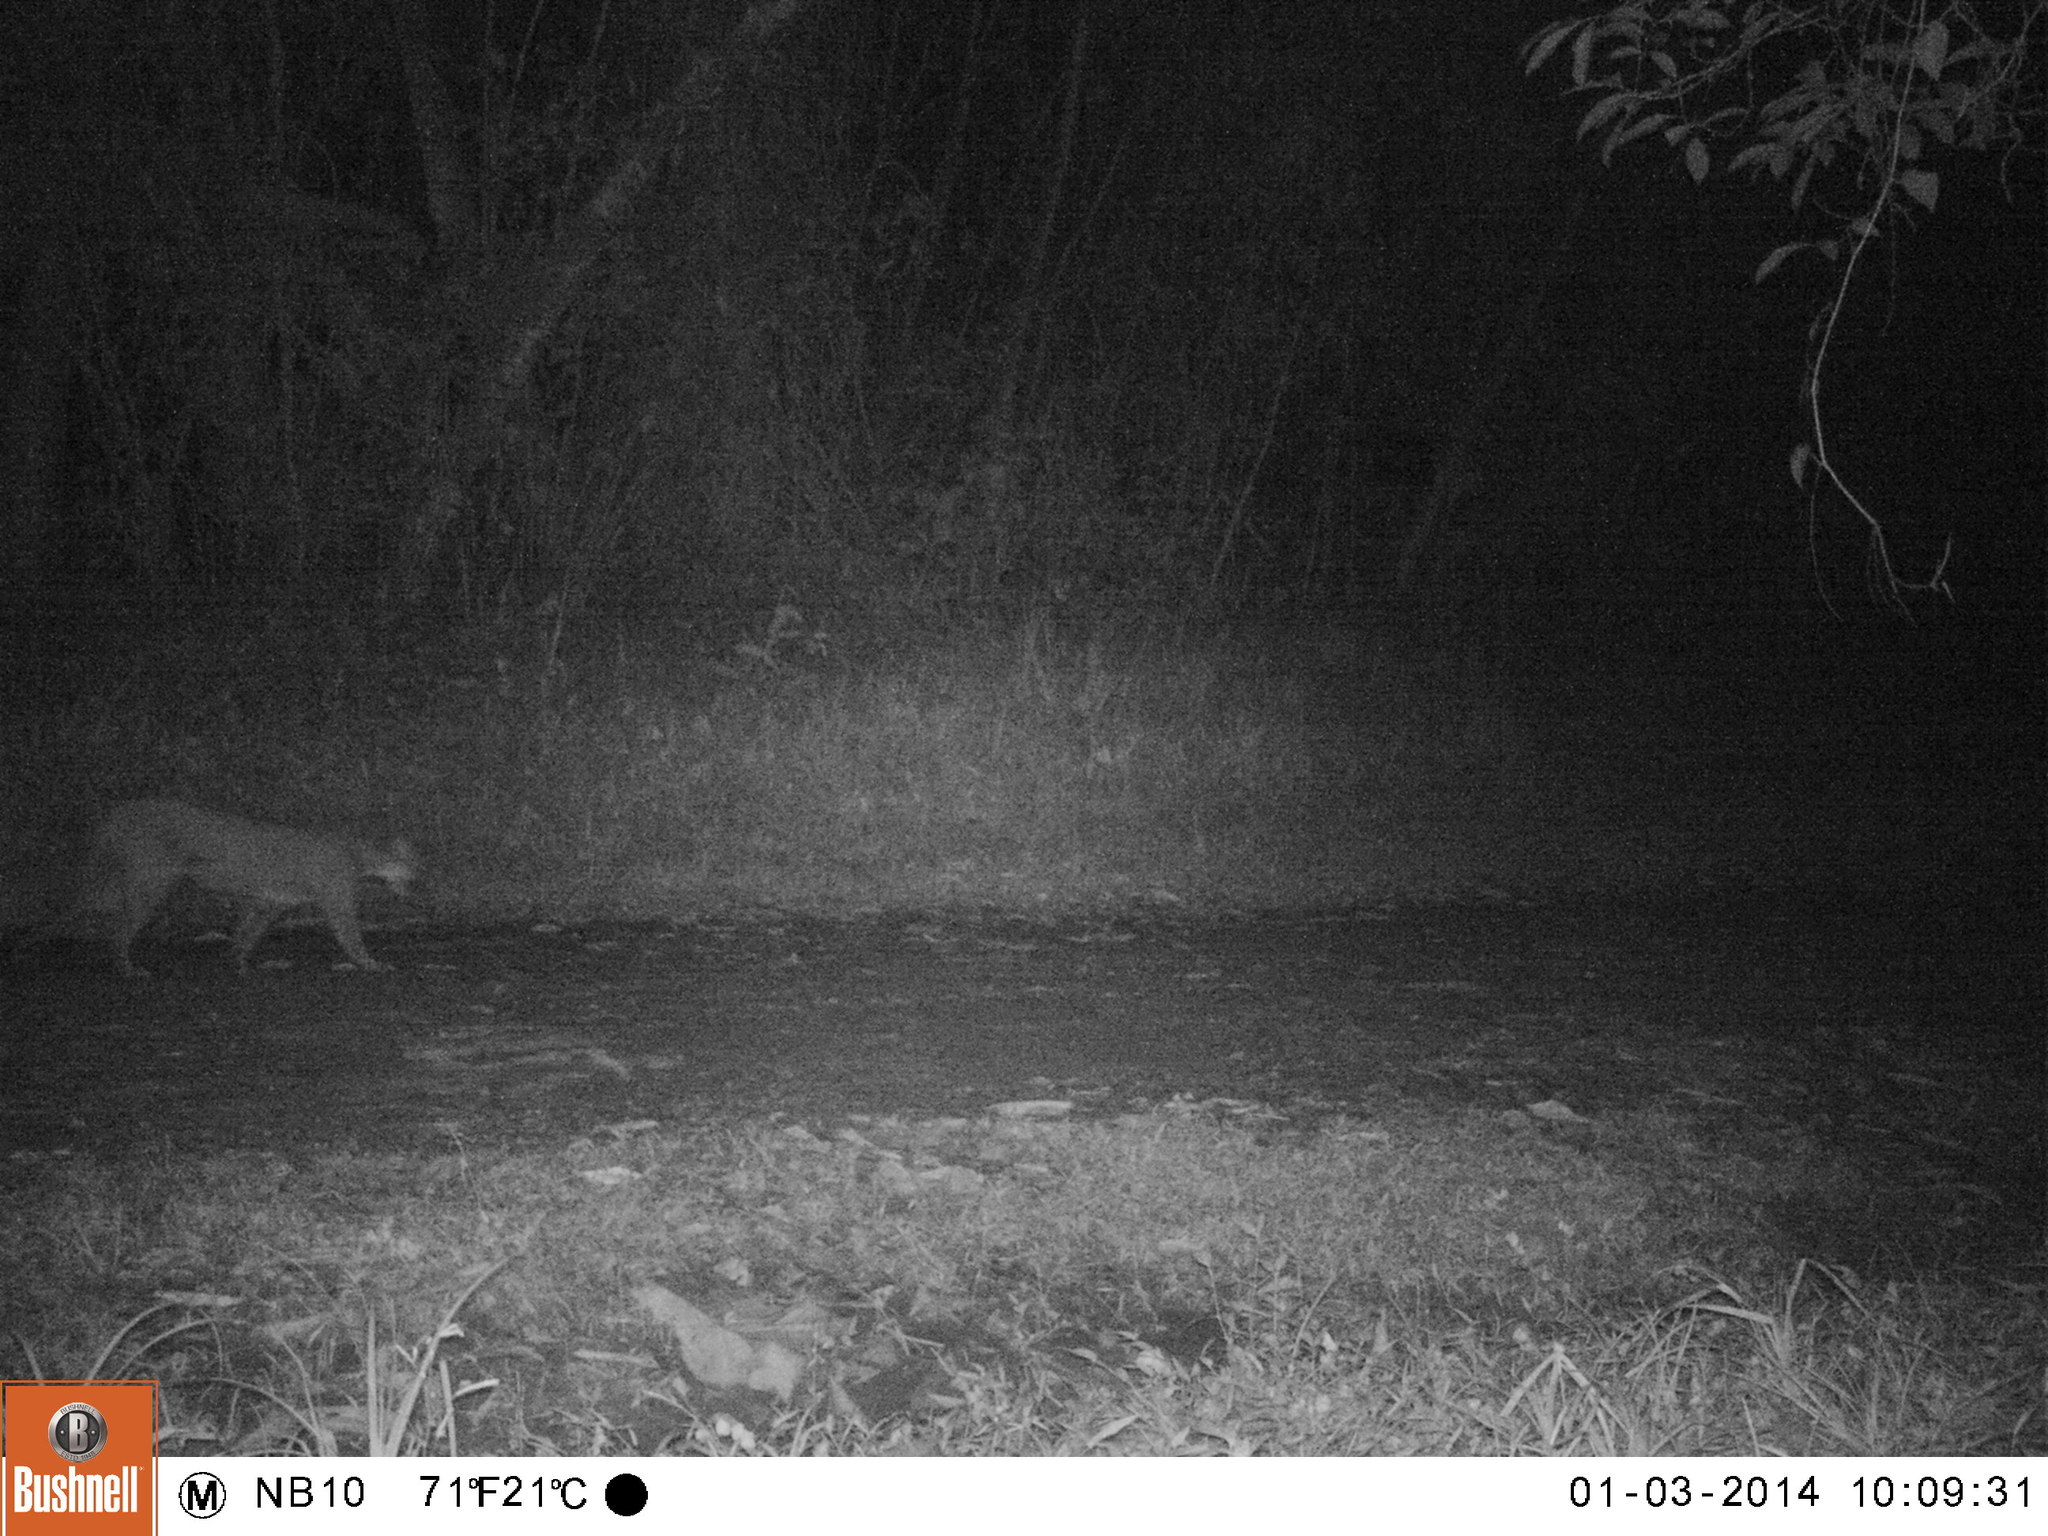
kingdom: Animalia
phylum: Chordata
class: Mammalia
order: Carnivora
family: Felidae
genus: Puma
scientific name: Puma concolor
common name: Puma
